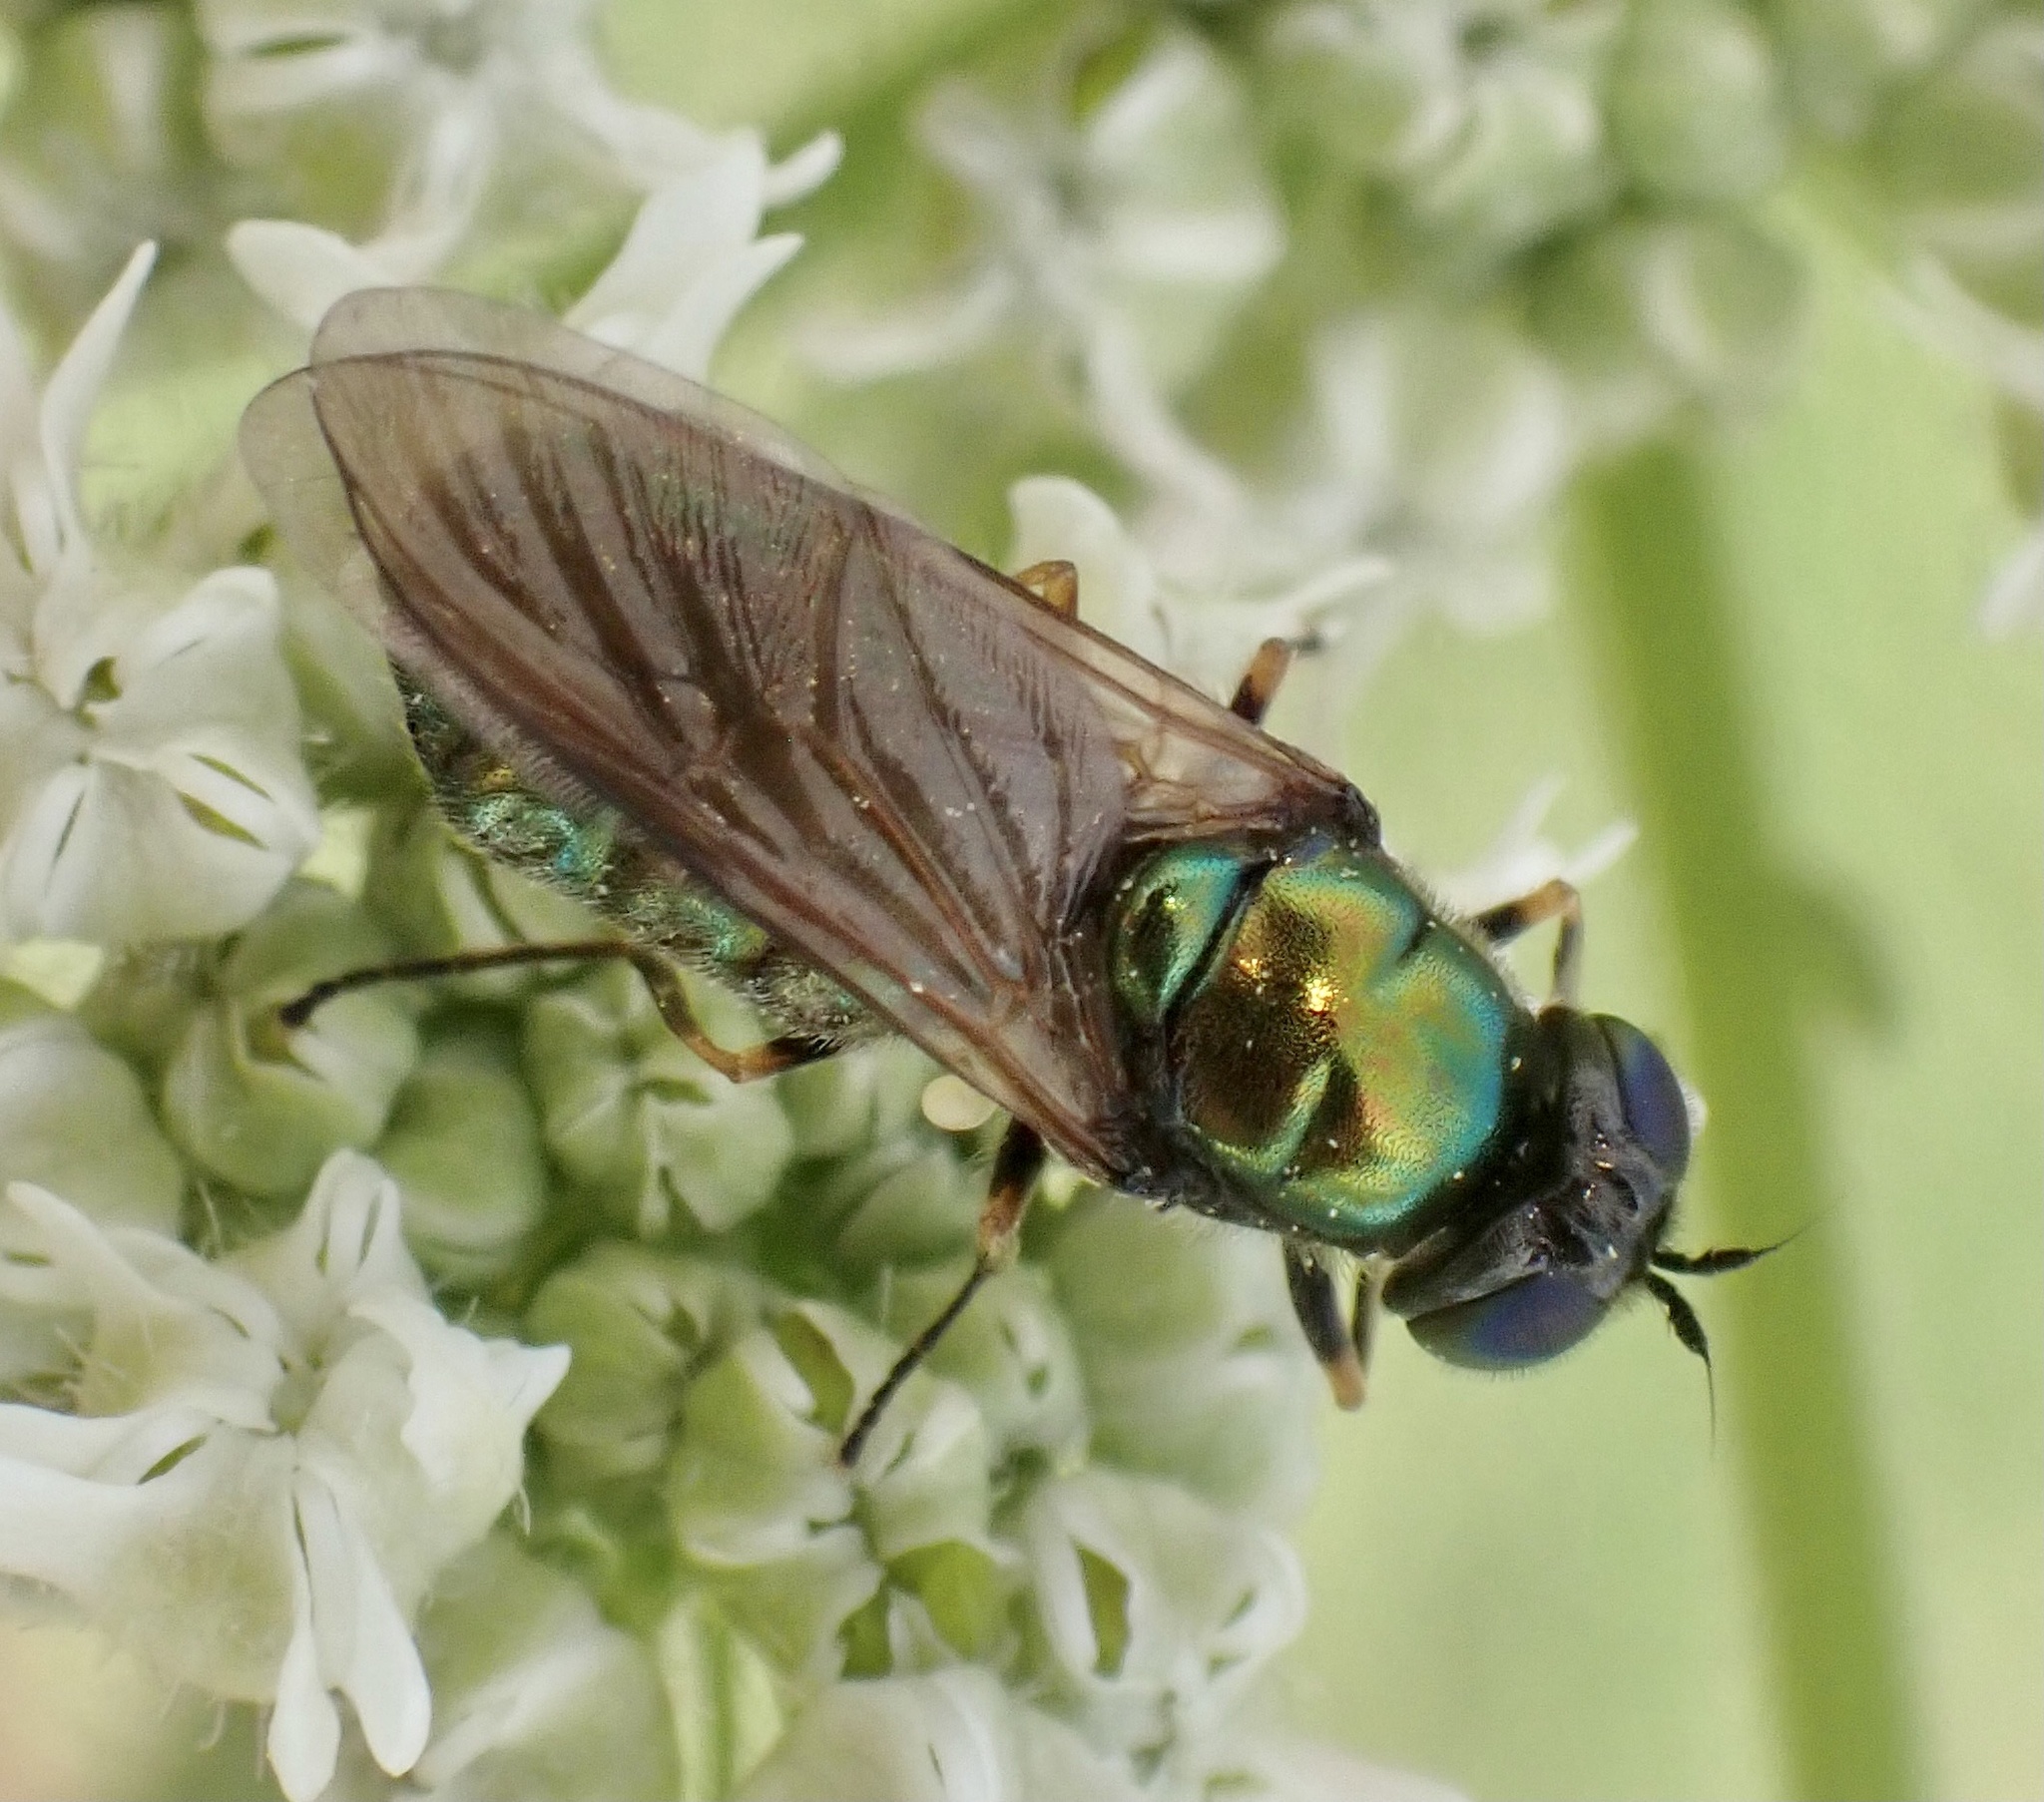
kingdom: Animalia
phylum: Arthropoda
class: Insecta
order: Diptera
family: Stratiomyidae
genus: Chloromyia
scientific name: Chloromyia formosa
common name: Soldier fly
